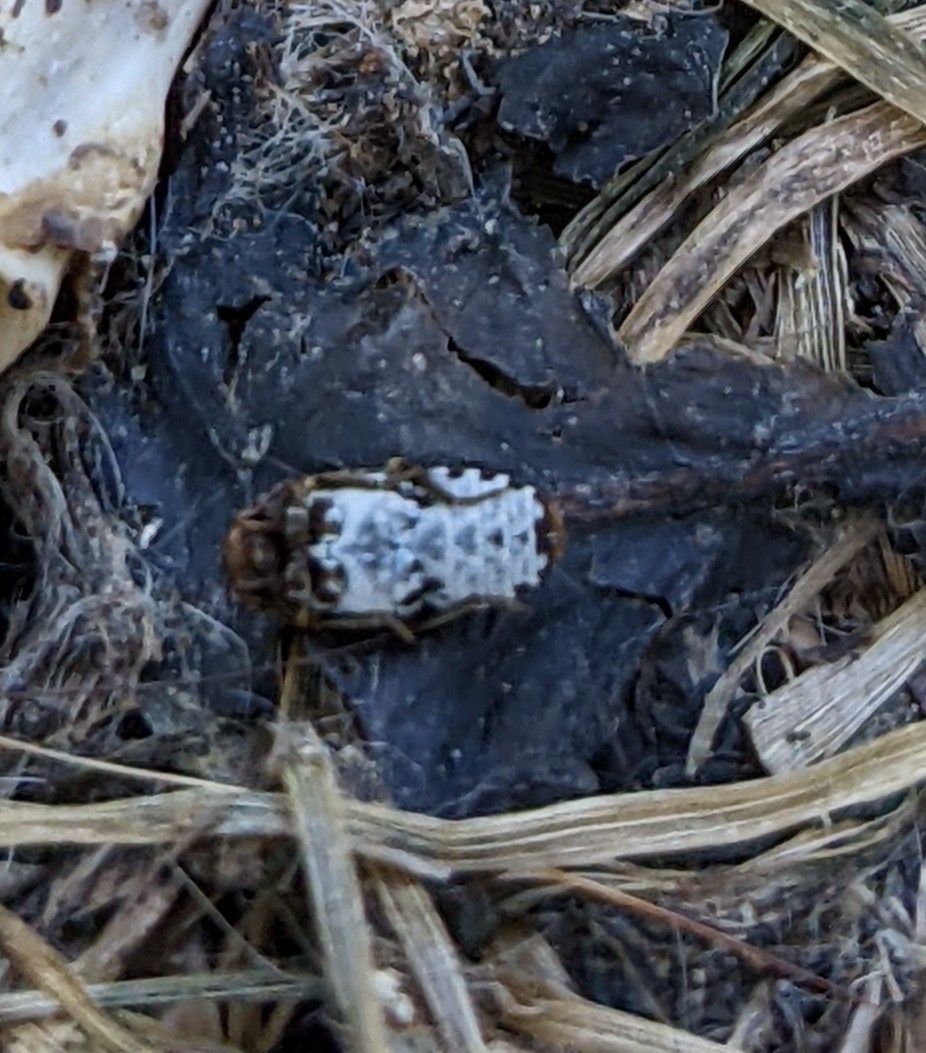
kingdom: Animalia
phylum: Arthropoda
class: Insecta
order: Coleoptera
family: Dermestidae
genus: Dermestes
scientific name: Dermestes undulatus
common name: Wavy carpet beetle
